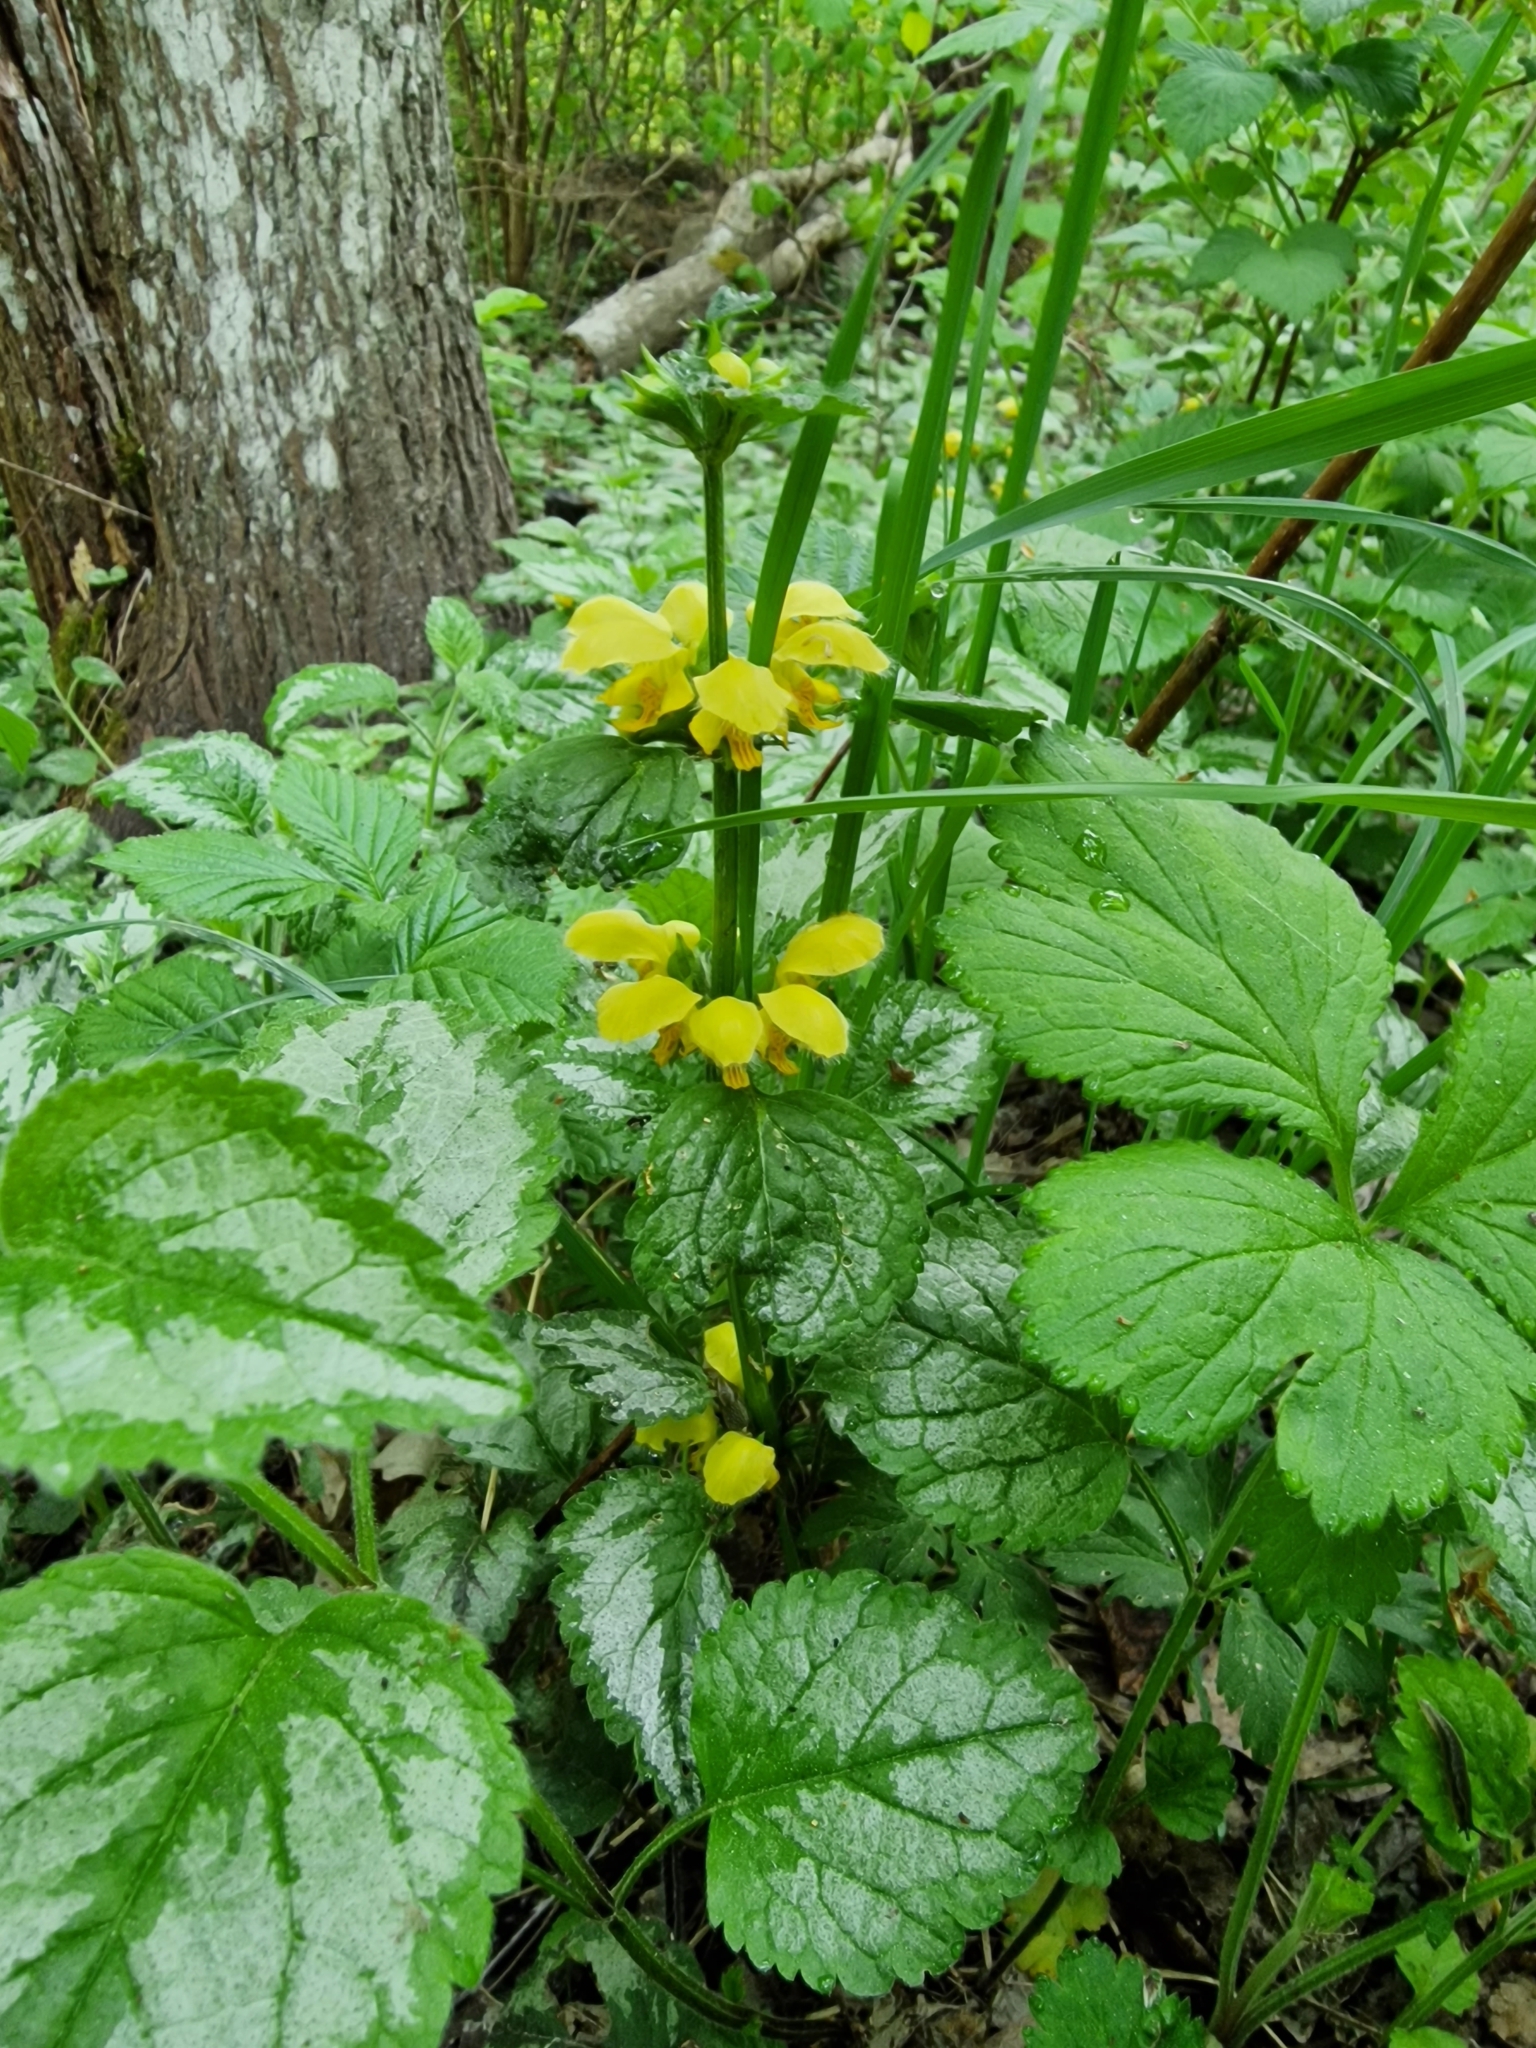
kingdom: Plantae
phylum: Tracheophyta
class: Magnoliopsida
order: Lamiales
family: Lamiaceae
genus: Lamium
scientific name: Lamium galeobdolon
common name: Yellow archangel
